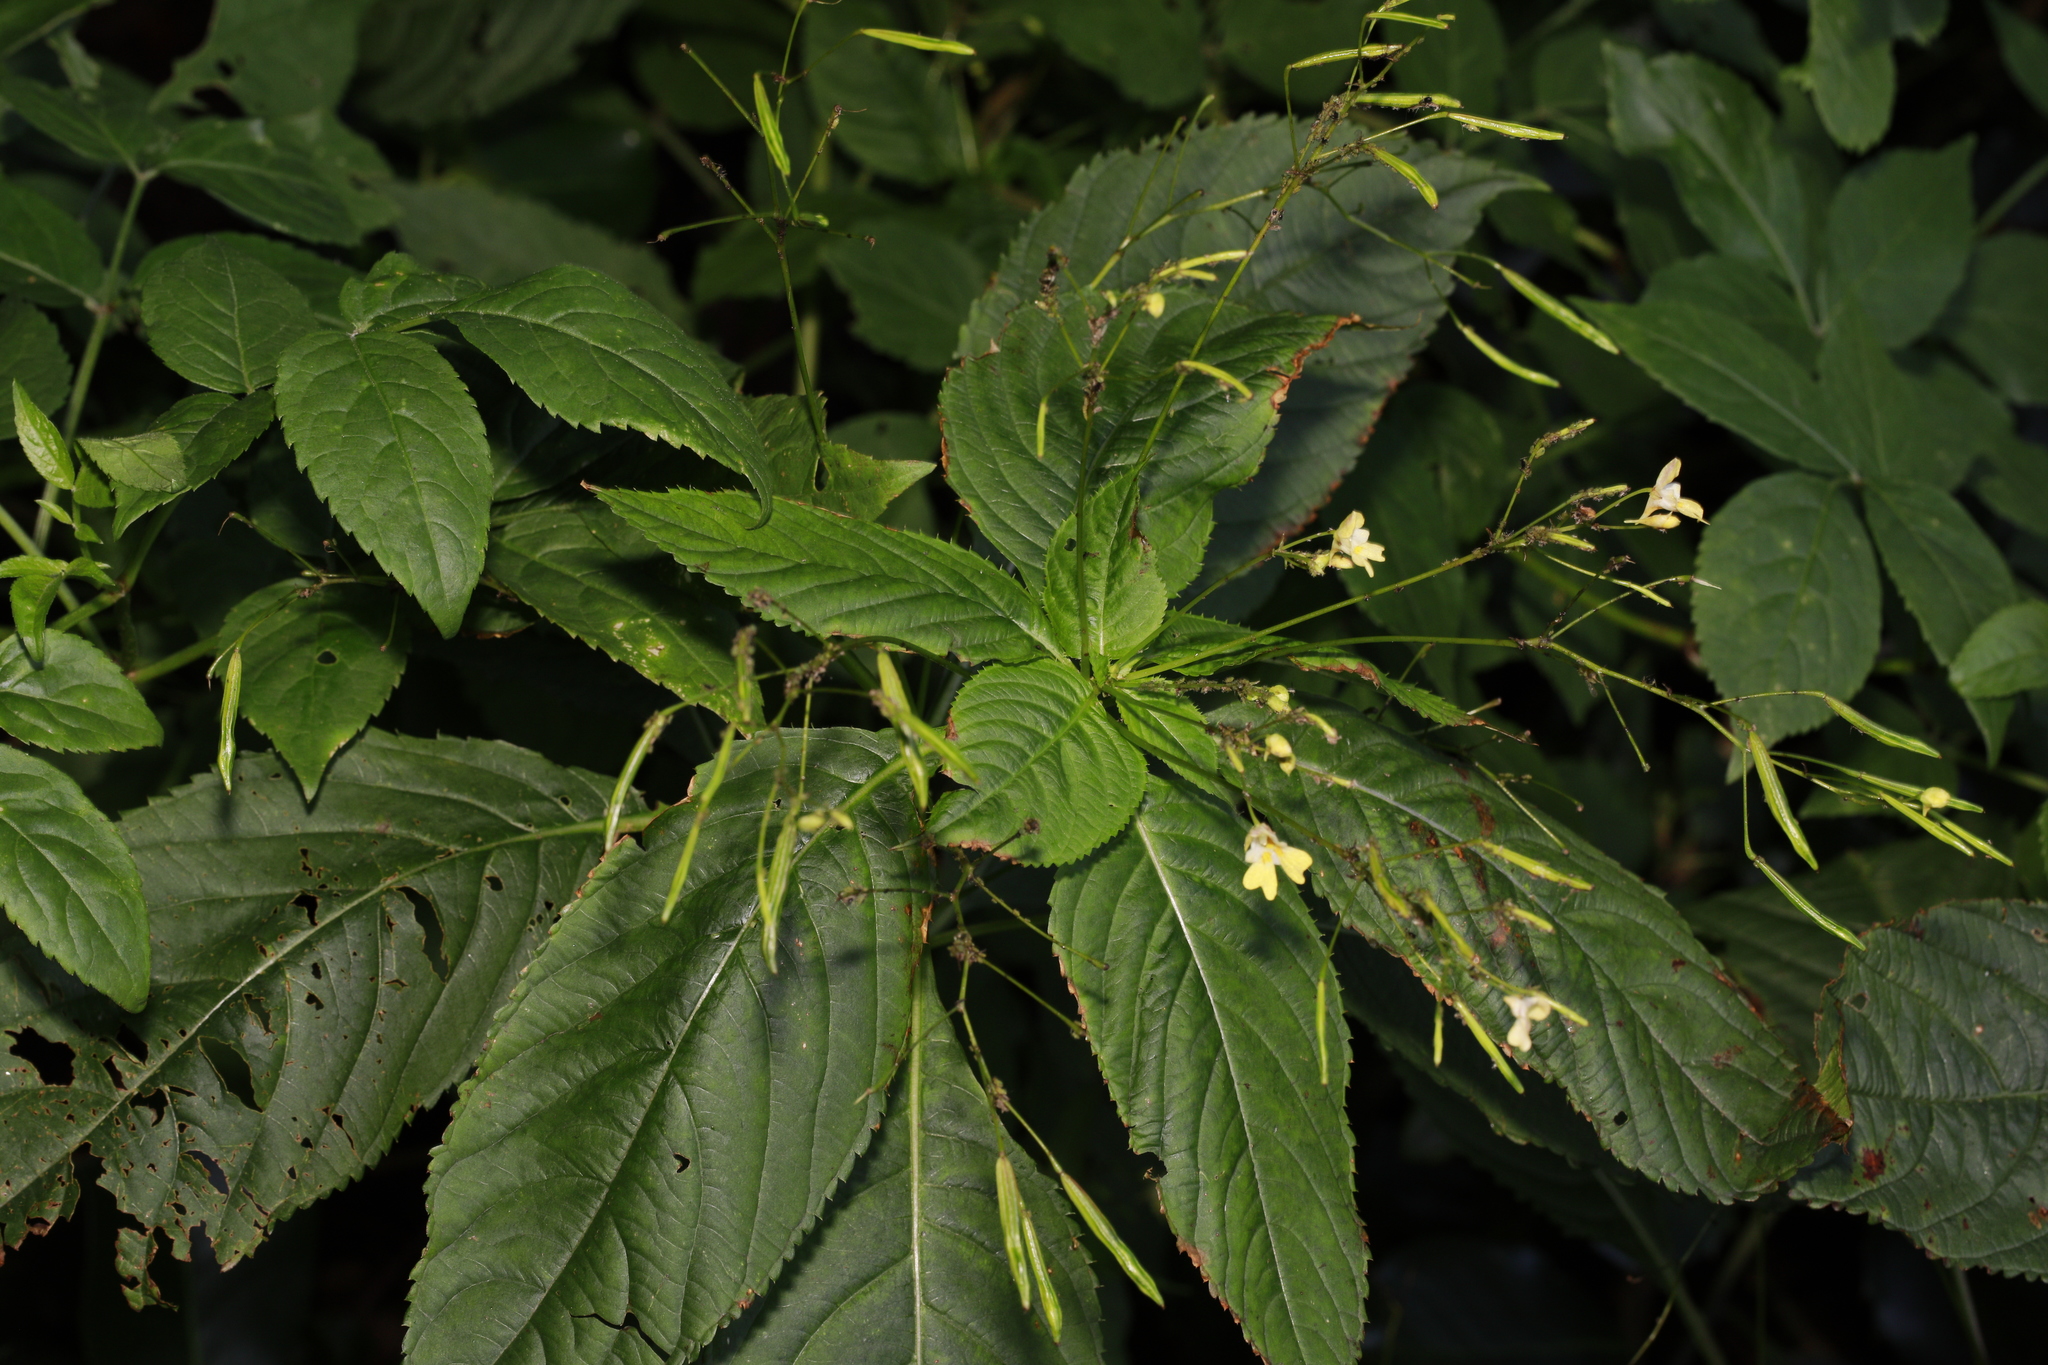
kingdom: Plantae
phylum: Tracheophyta
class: Magnoliopsida
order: Ericales
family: Balsaminaceae
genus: Impatiens
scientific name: Impatiens parviflora
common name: Small balsam
